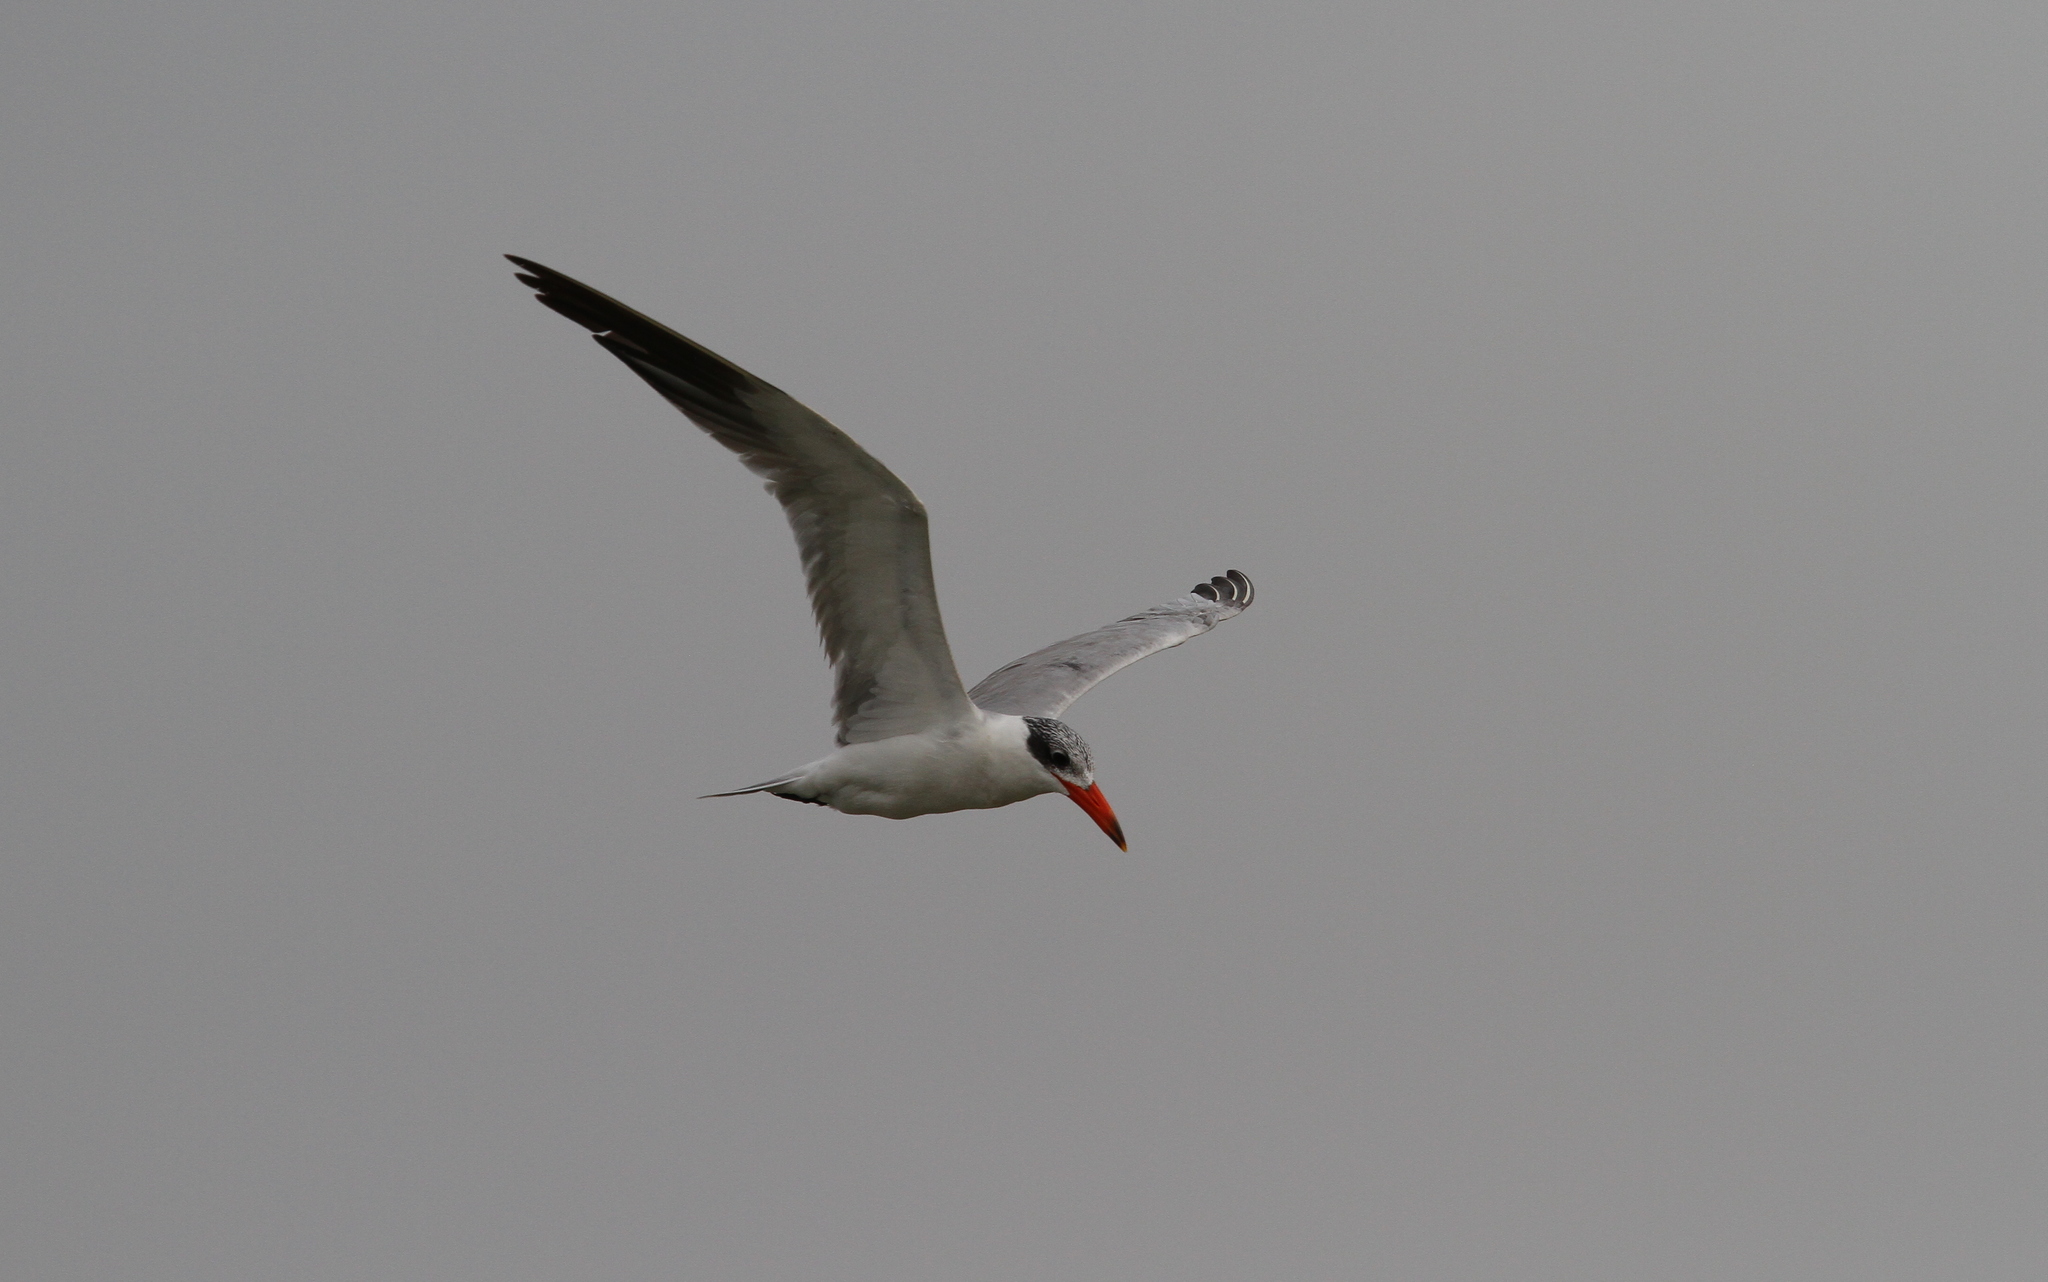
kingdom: Animalia
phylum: Chordata
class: Aves
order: Charadriiformes
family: Laridae
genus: Hydroprogne
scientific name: Hydroprogne caspia
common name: Caspian tern
